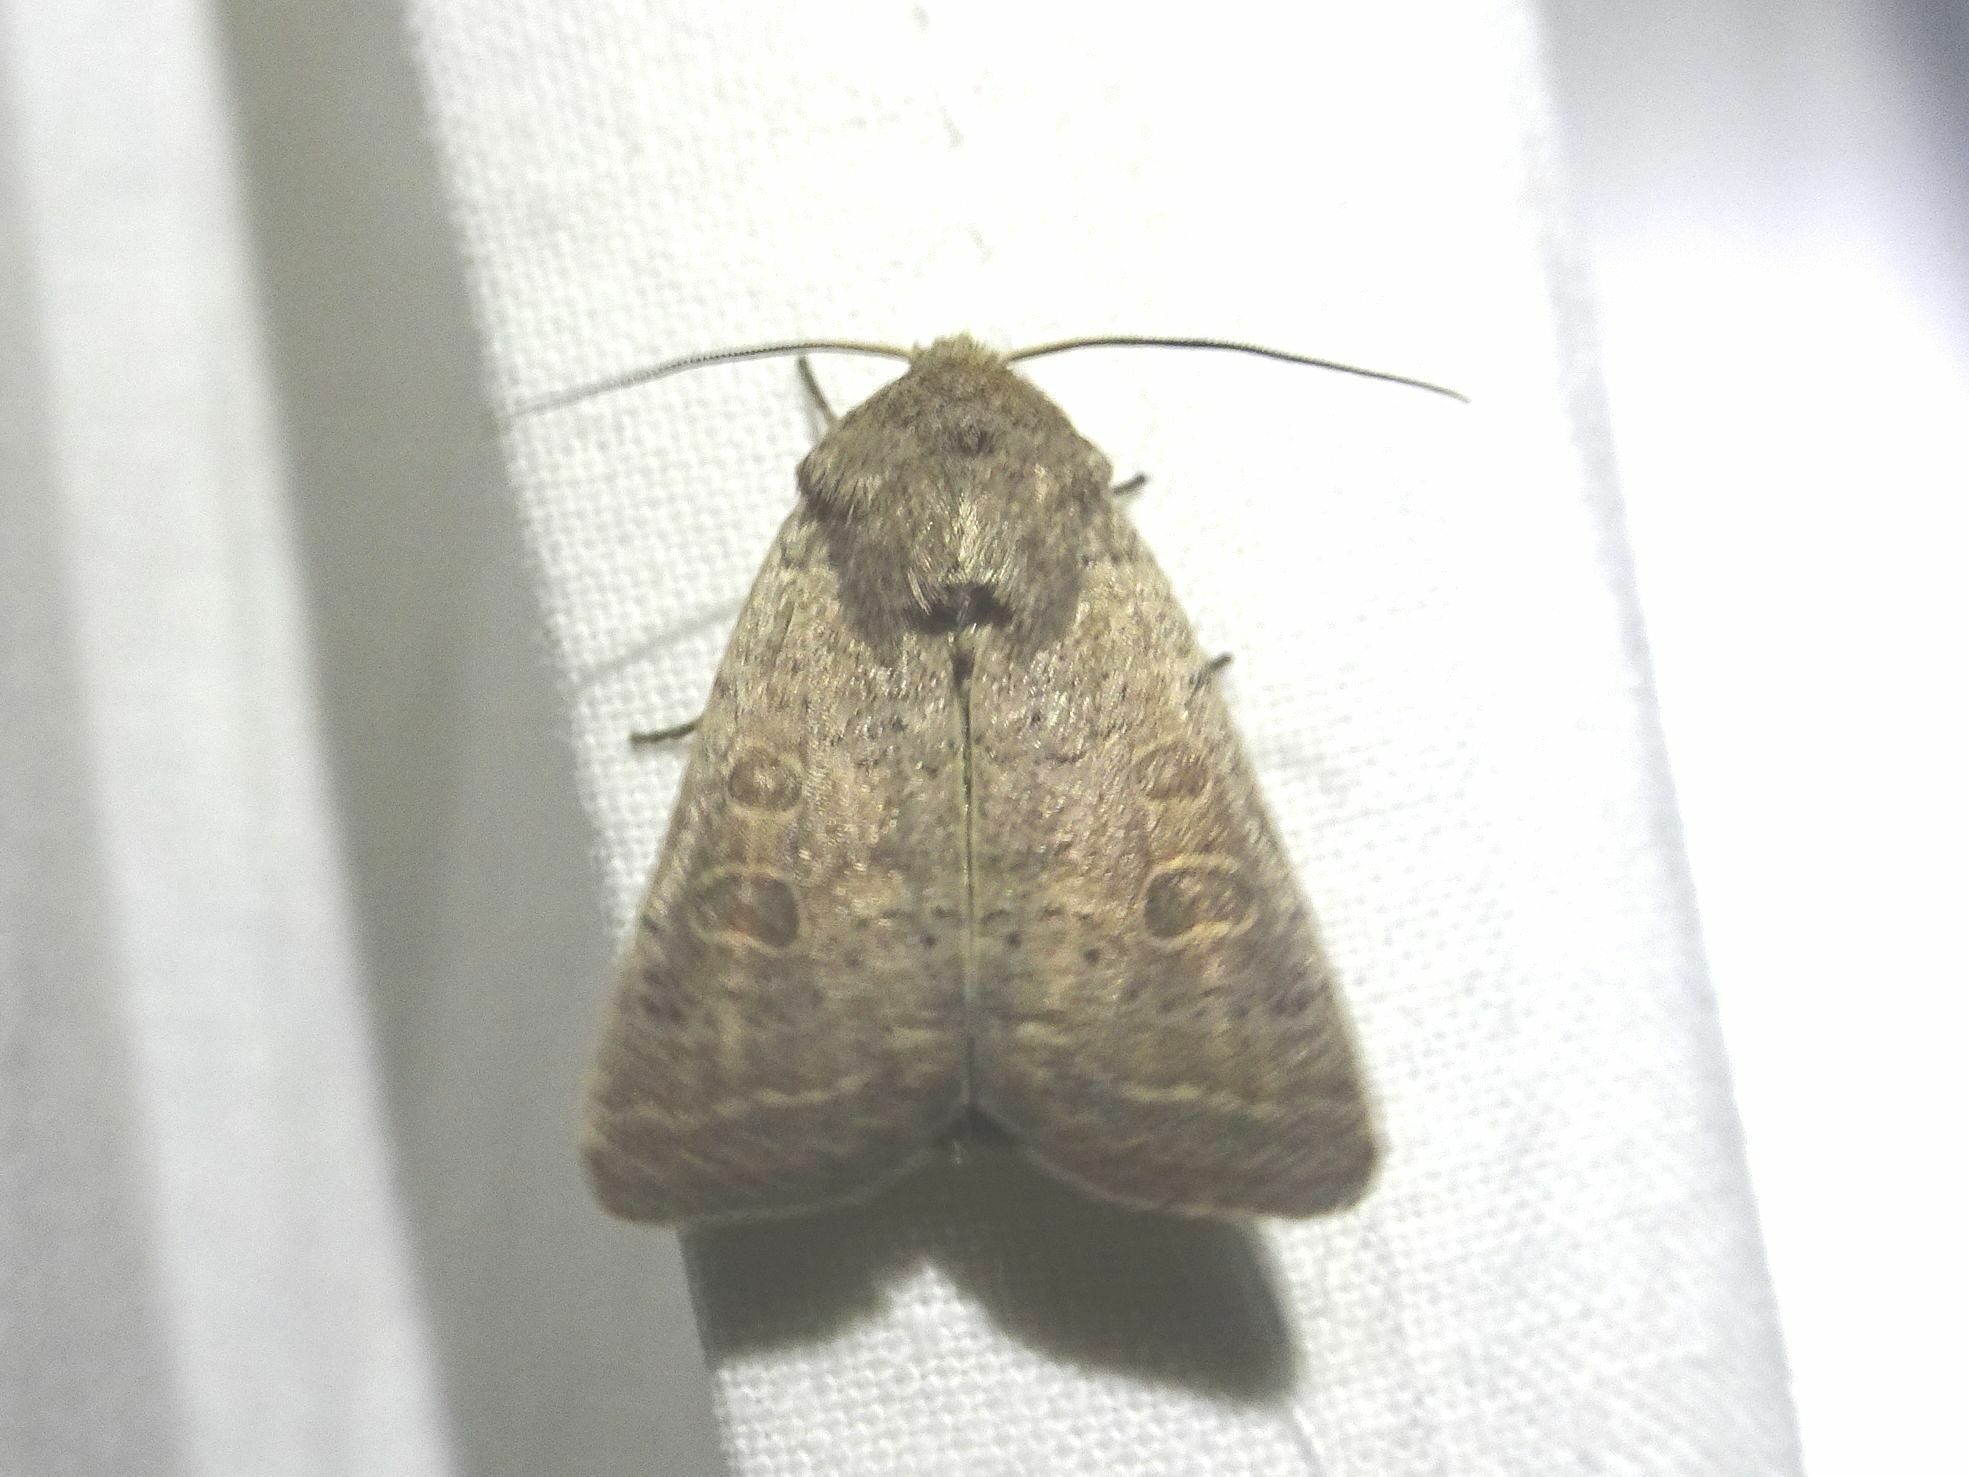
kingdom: Animalia
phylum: Arthropoda
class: Insecta
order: Lepidoptera
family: Noctuidae
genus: Hoplodrina
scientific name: Hoplodrina ambigua
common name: Vine's rustic
